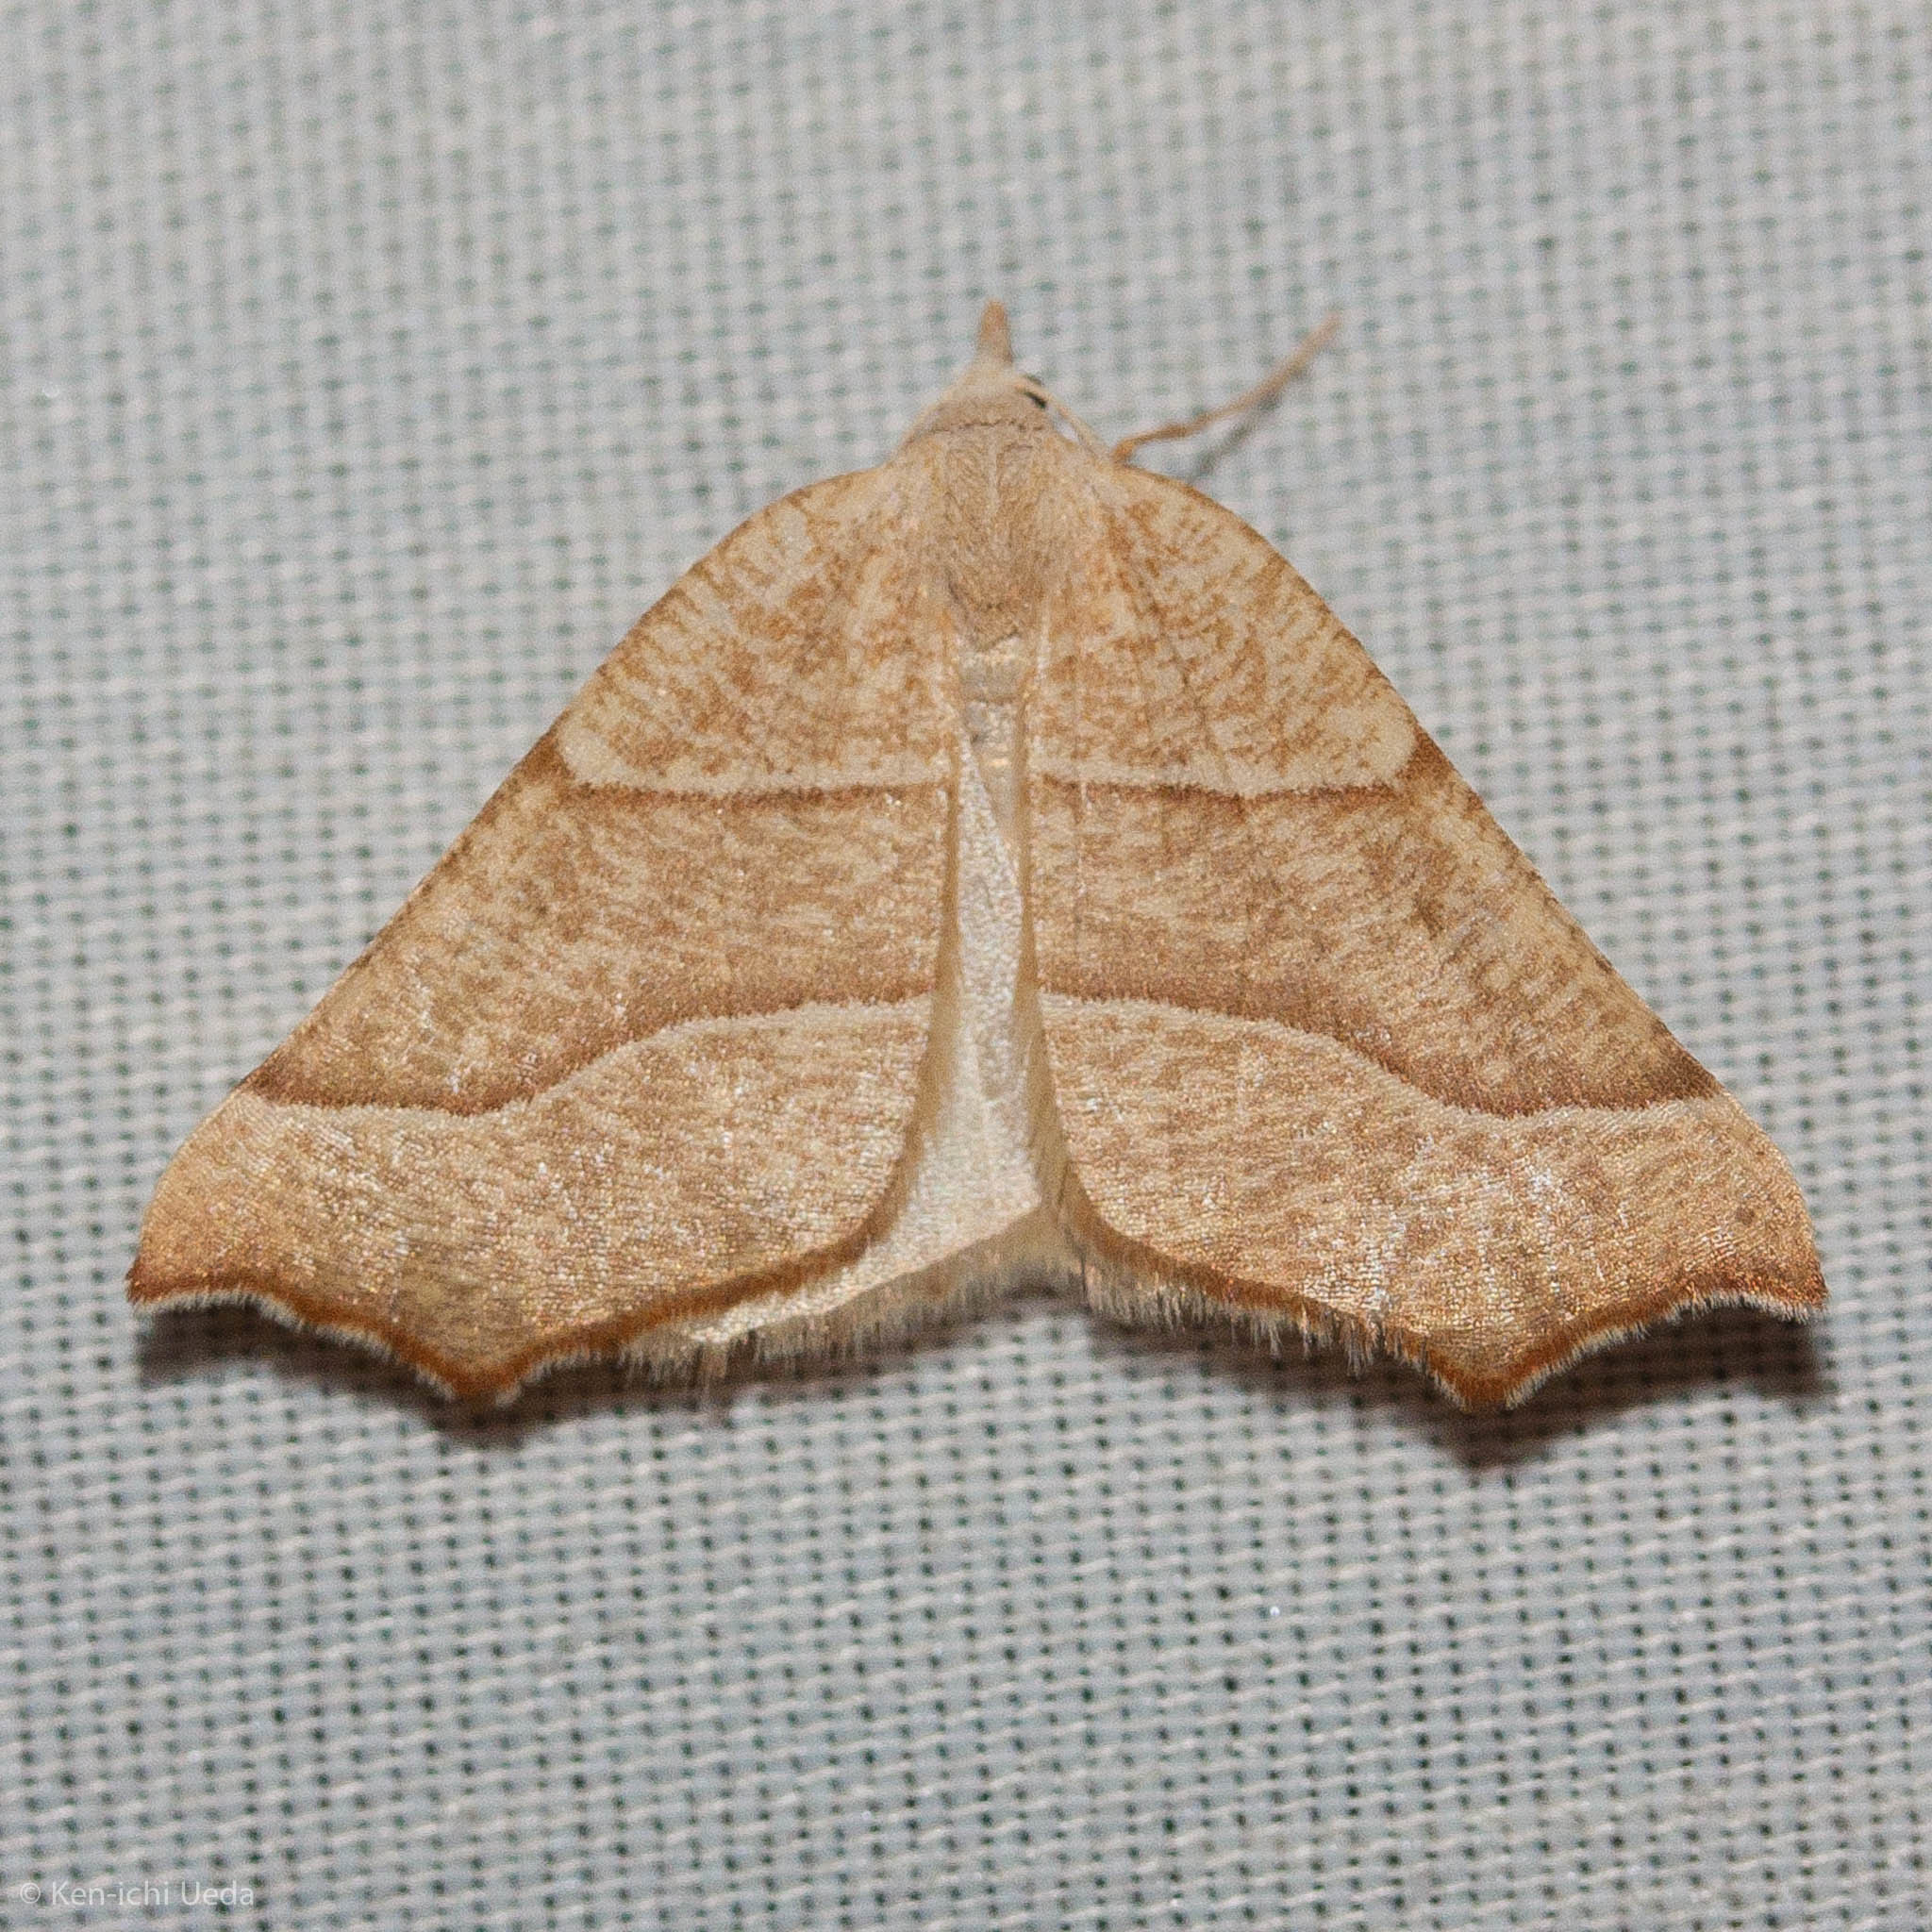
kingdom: Animalia
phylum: Arthropoda
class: Insecta
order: Lepidoptera
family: Geometridae
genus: Pherne
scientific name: Pherne subpunctata
